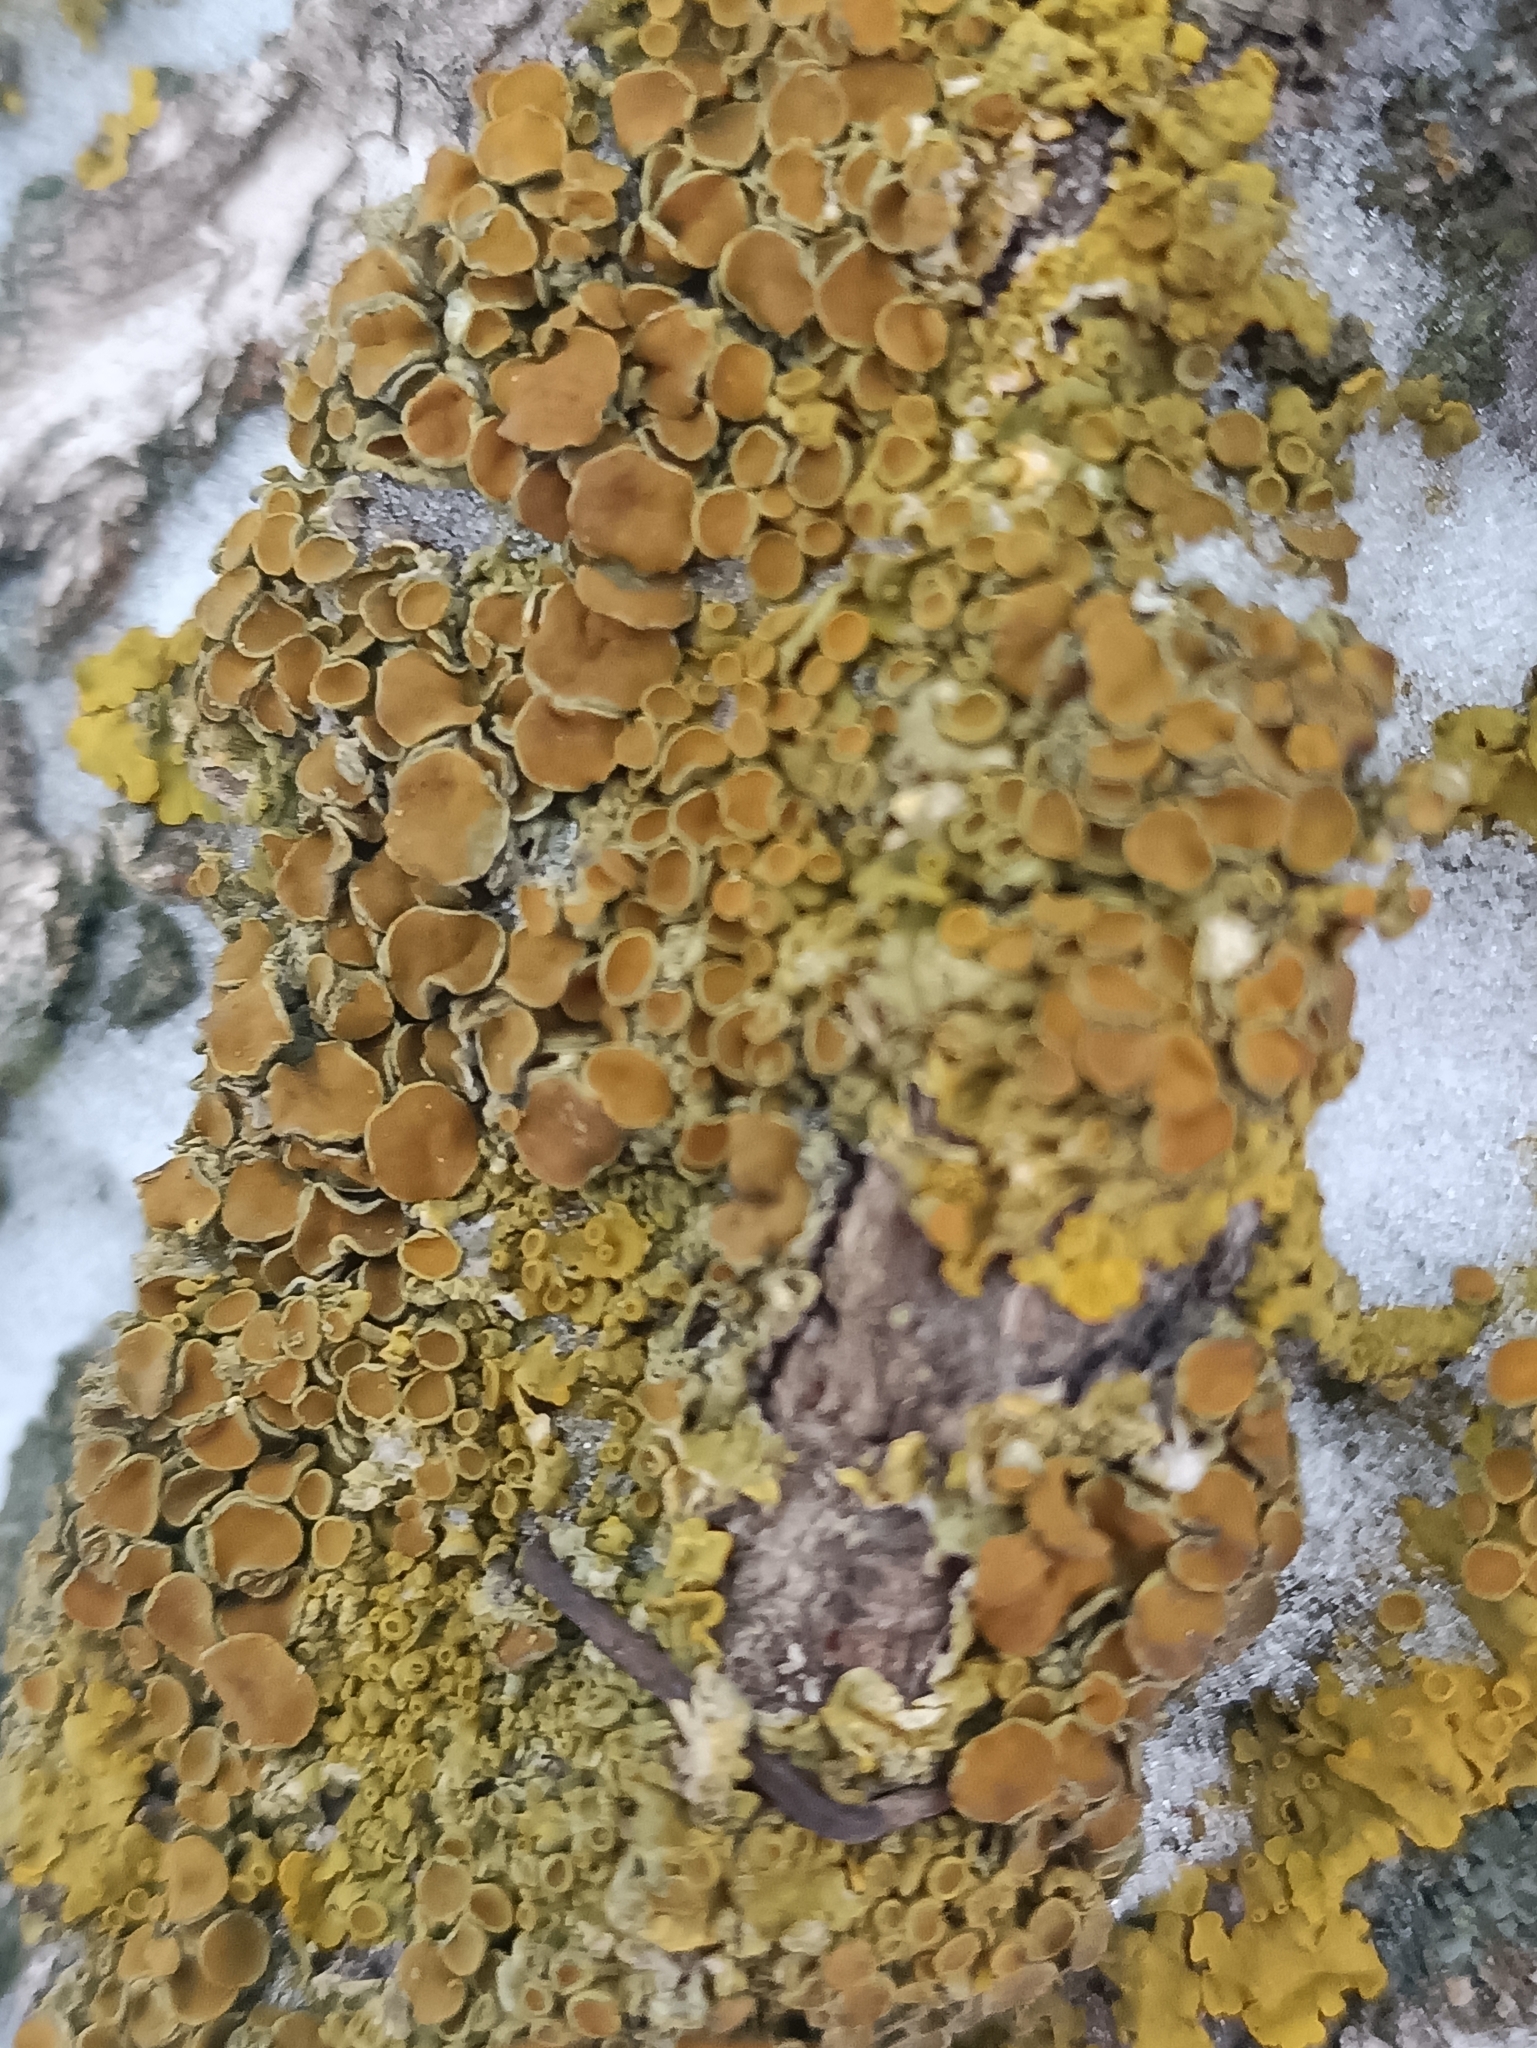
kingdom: Fungi
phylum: Ascomycota
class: Lecanoromycetes
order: Teloschistales
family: Teloschistaceae
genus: Xanthoria
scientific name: Xanthoria parietina
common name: Common orange lichen
